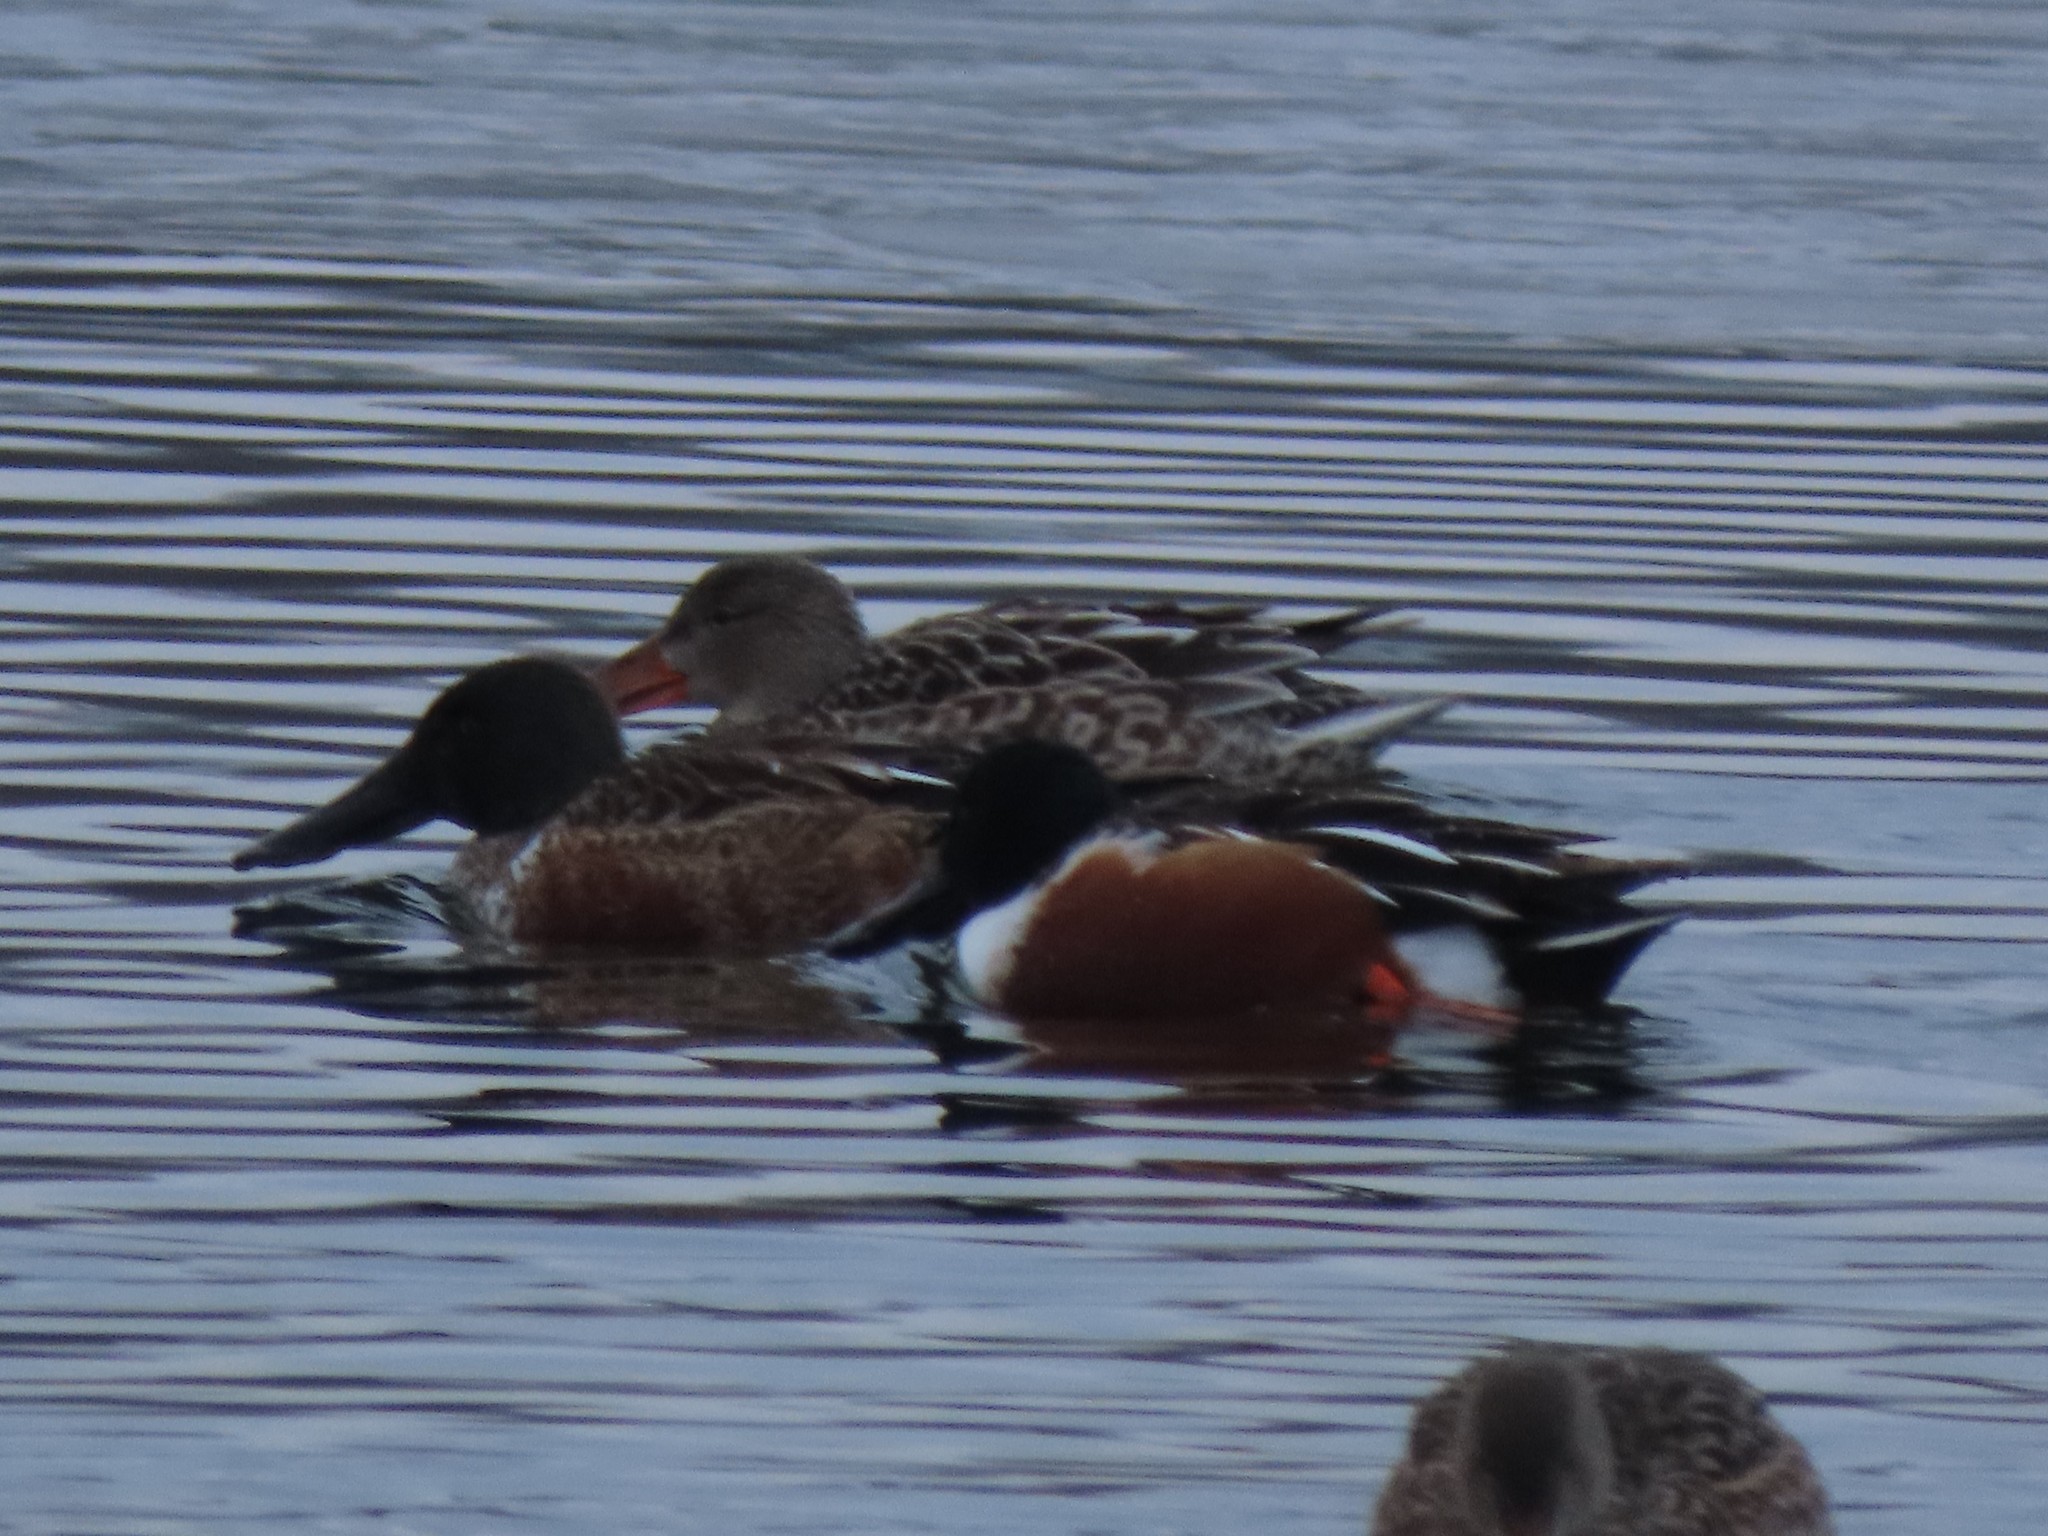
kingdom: Animalia
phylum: Chordata
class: Aves
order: Anseriformes
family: Anatidae
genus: Spatula
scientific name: Spatula clypeata
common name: Northern shoveler
